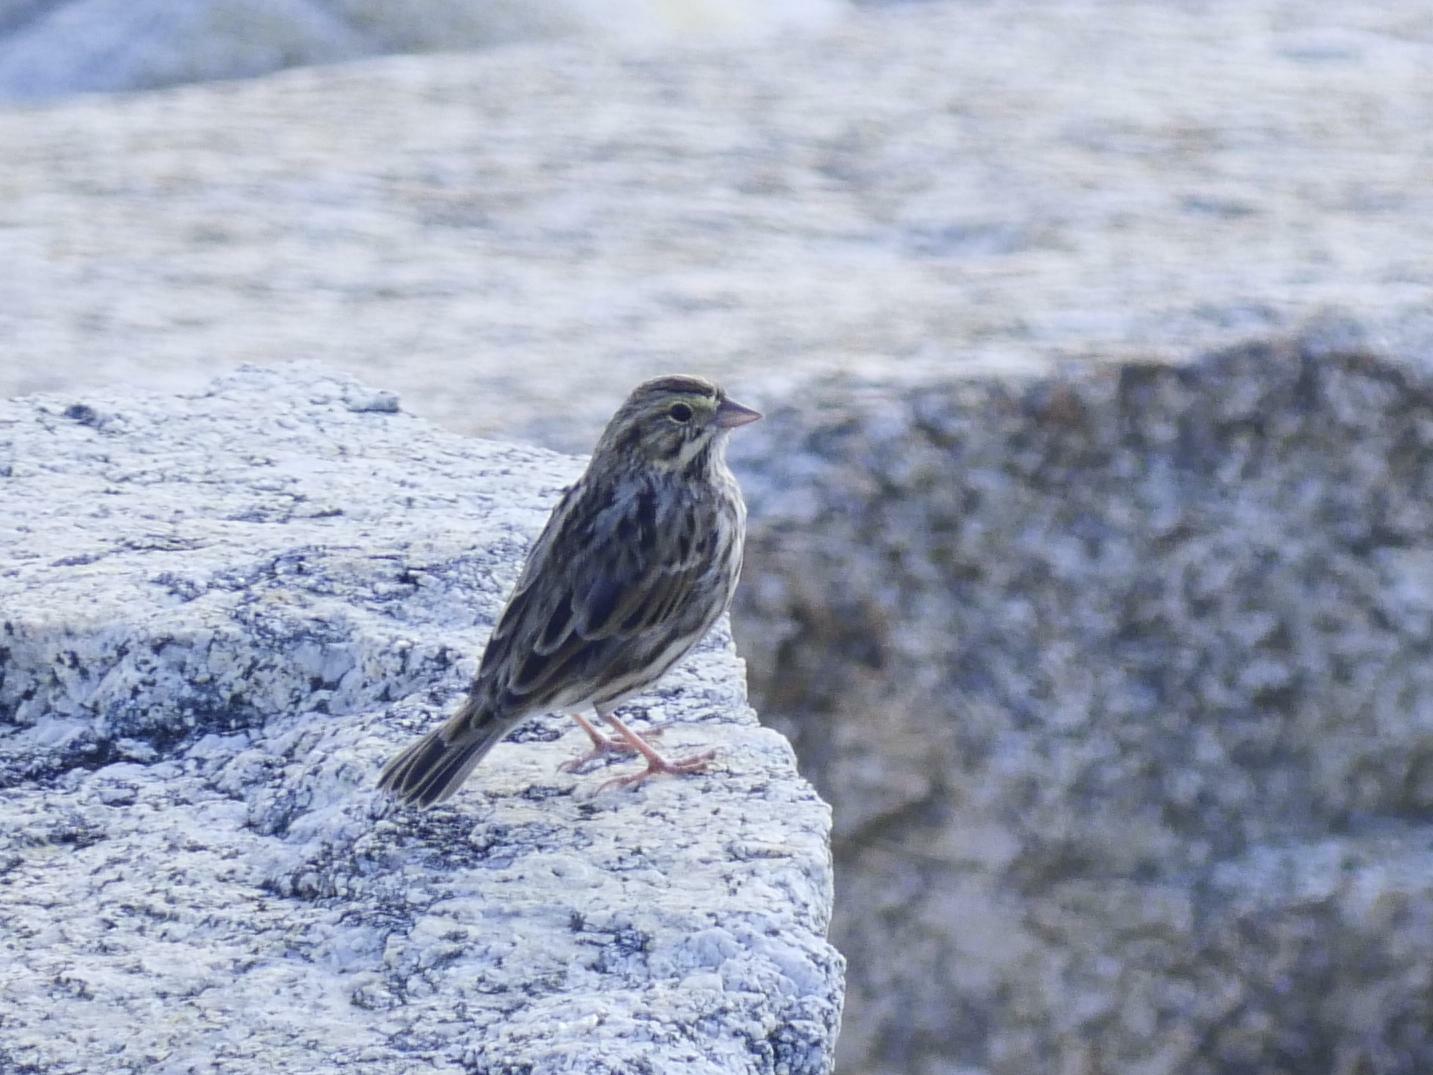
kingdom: Animalia
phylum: Chordata
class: Aves
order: Passeriformes
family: Passerellidae
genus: Passerculus
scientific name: Passerculus sandwichensis
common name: Savannah sparrow
